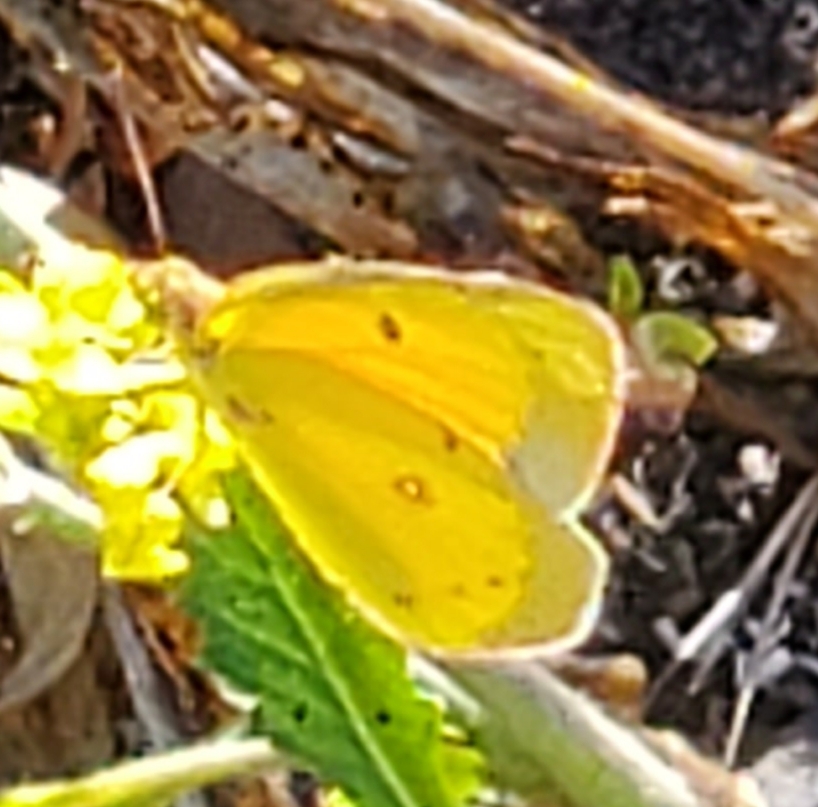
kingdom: Animalia
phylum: Arthropoda
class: Insecta
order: Lepidoptera
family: Pieridae
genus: Colias
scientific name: Colias eurytheme
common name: Alfalfa butterfly
